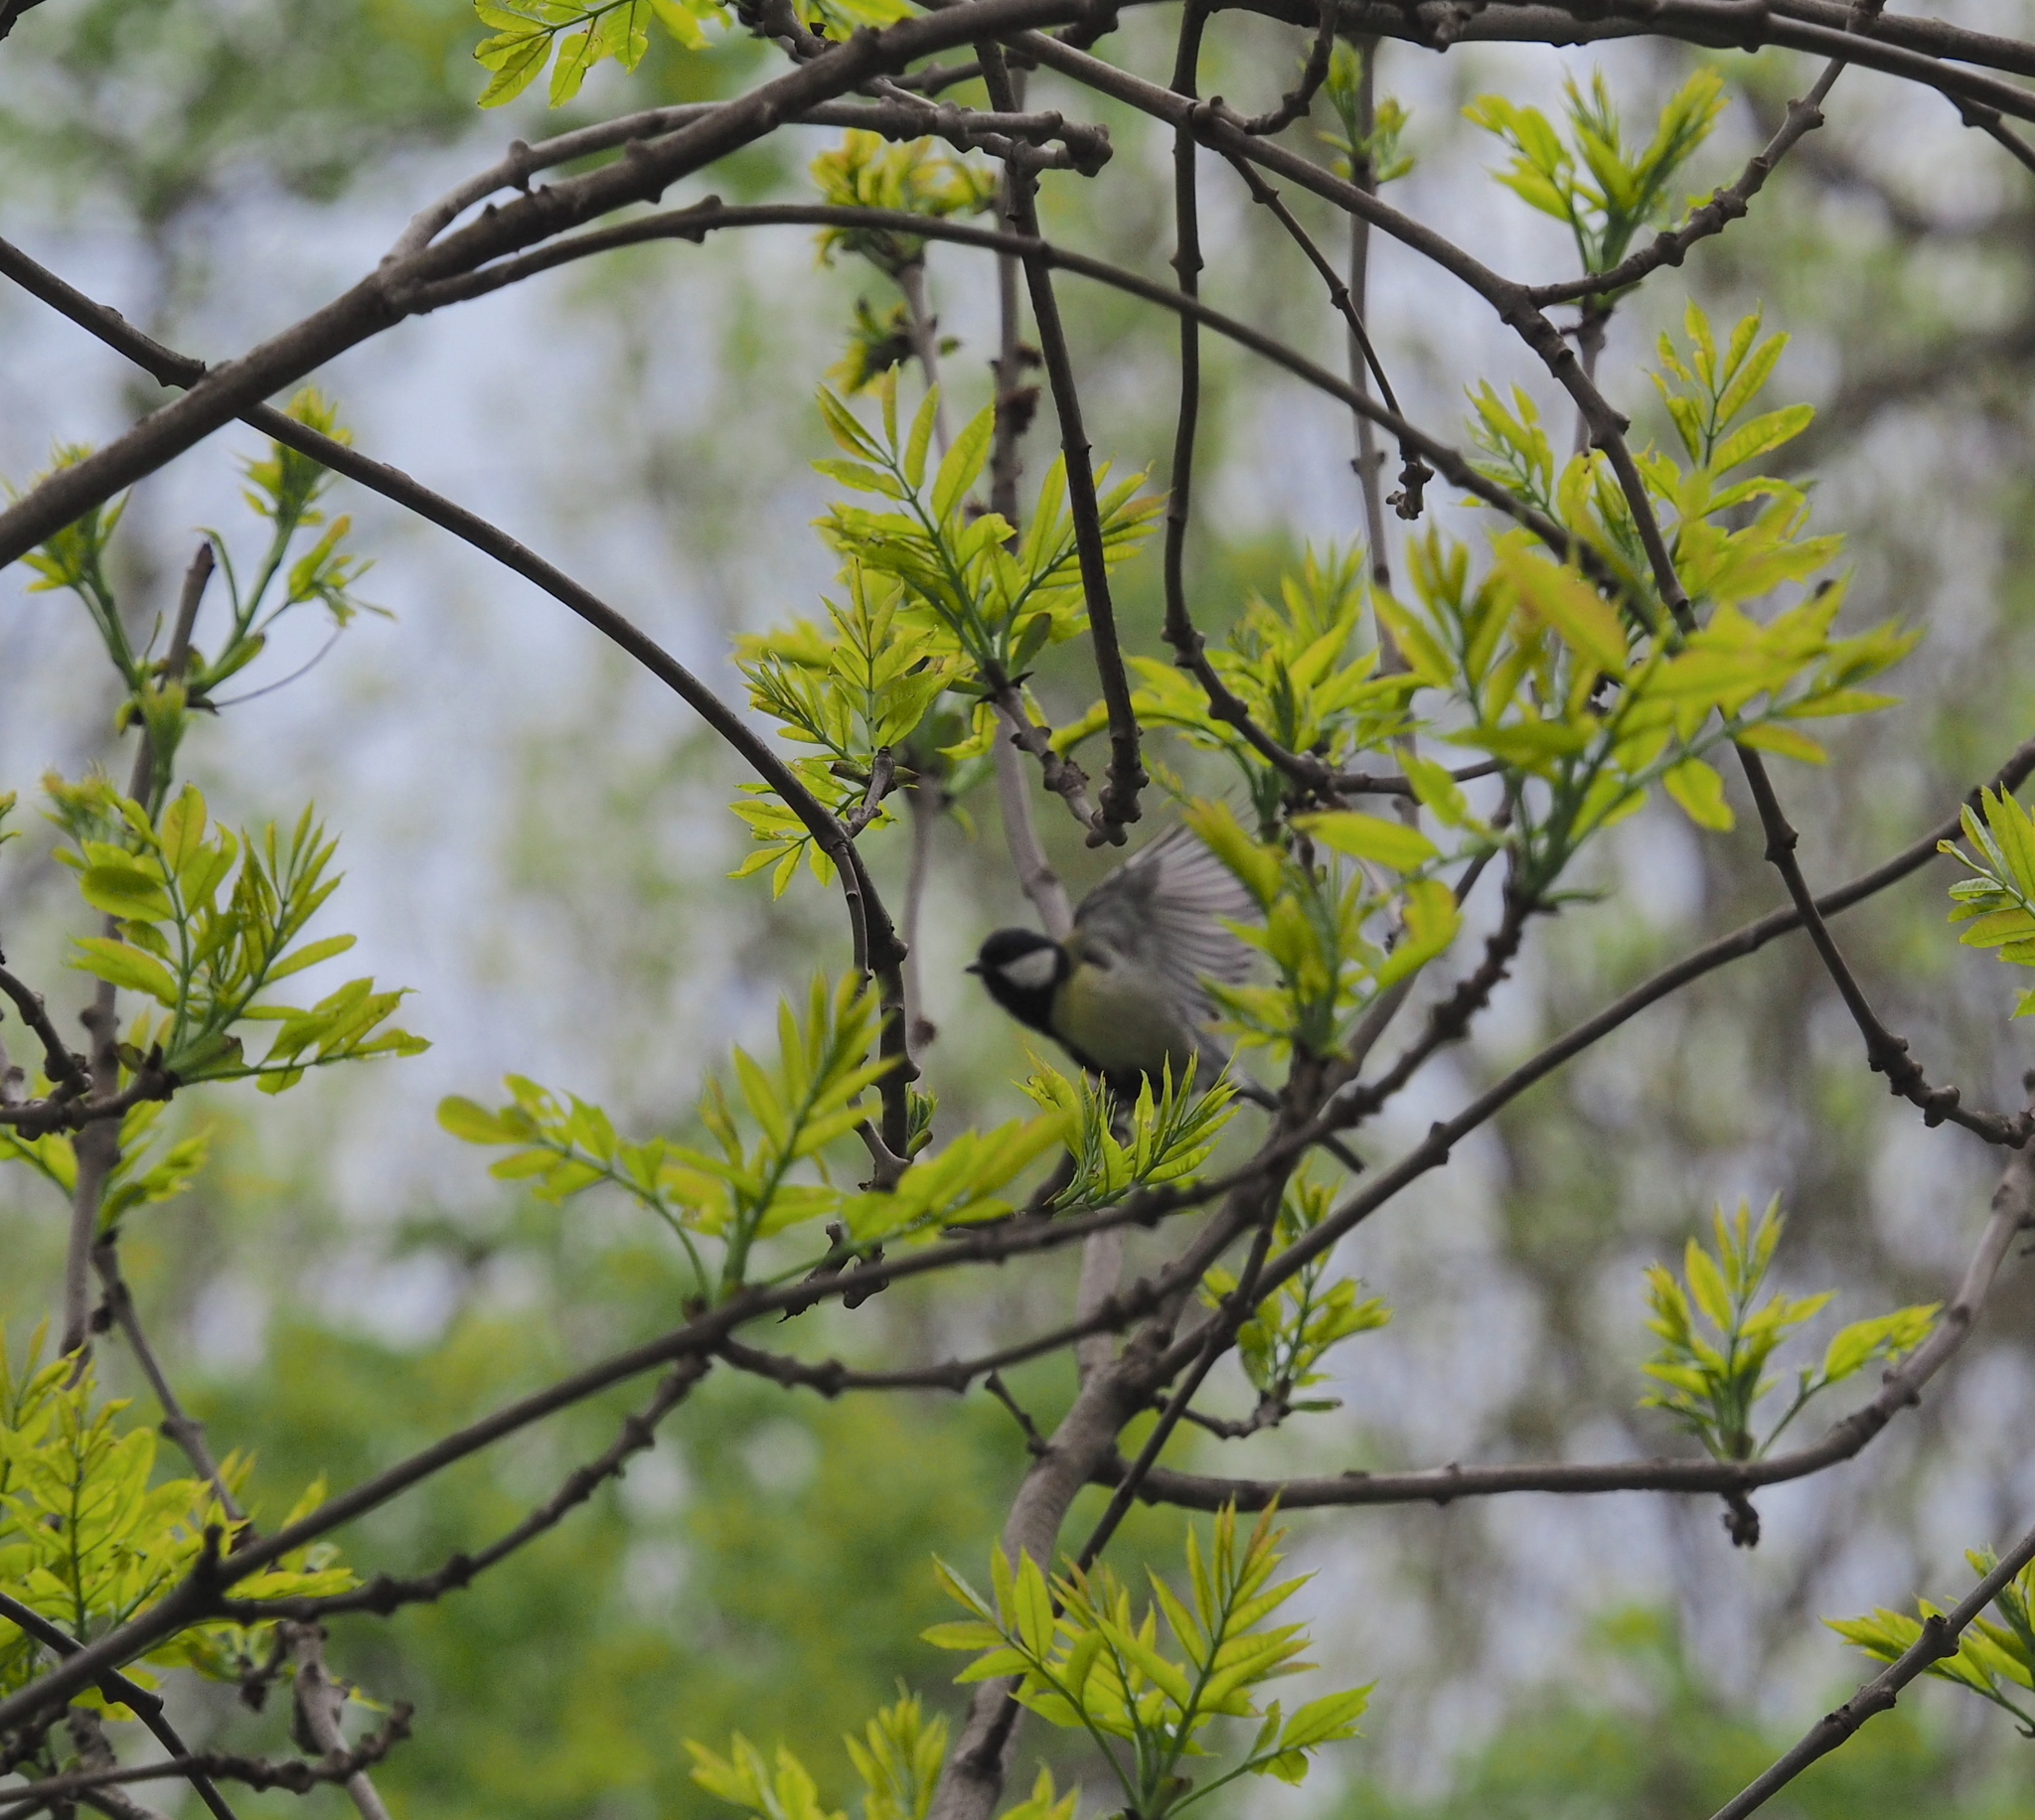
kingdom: Animalia
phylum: Chordata
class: Aves
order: Passeriformes
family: Paridae
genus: Parus
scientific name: Parus major
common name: Great tit
